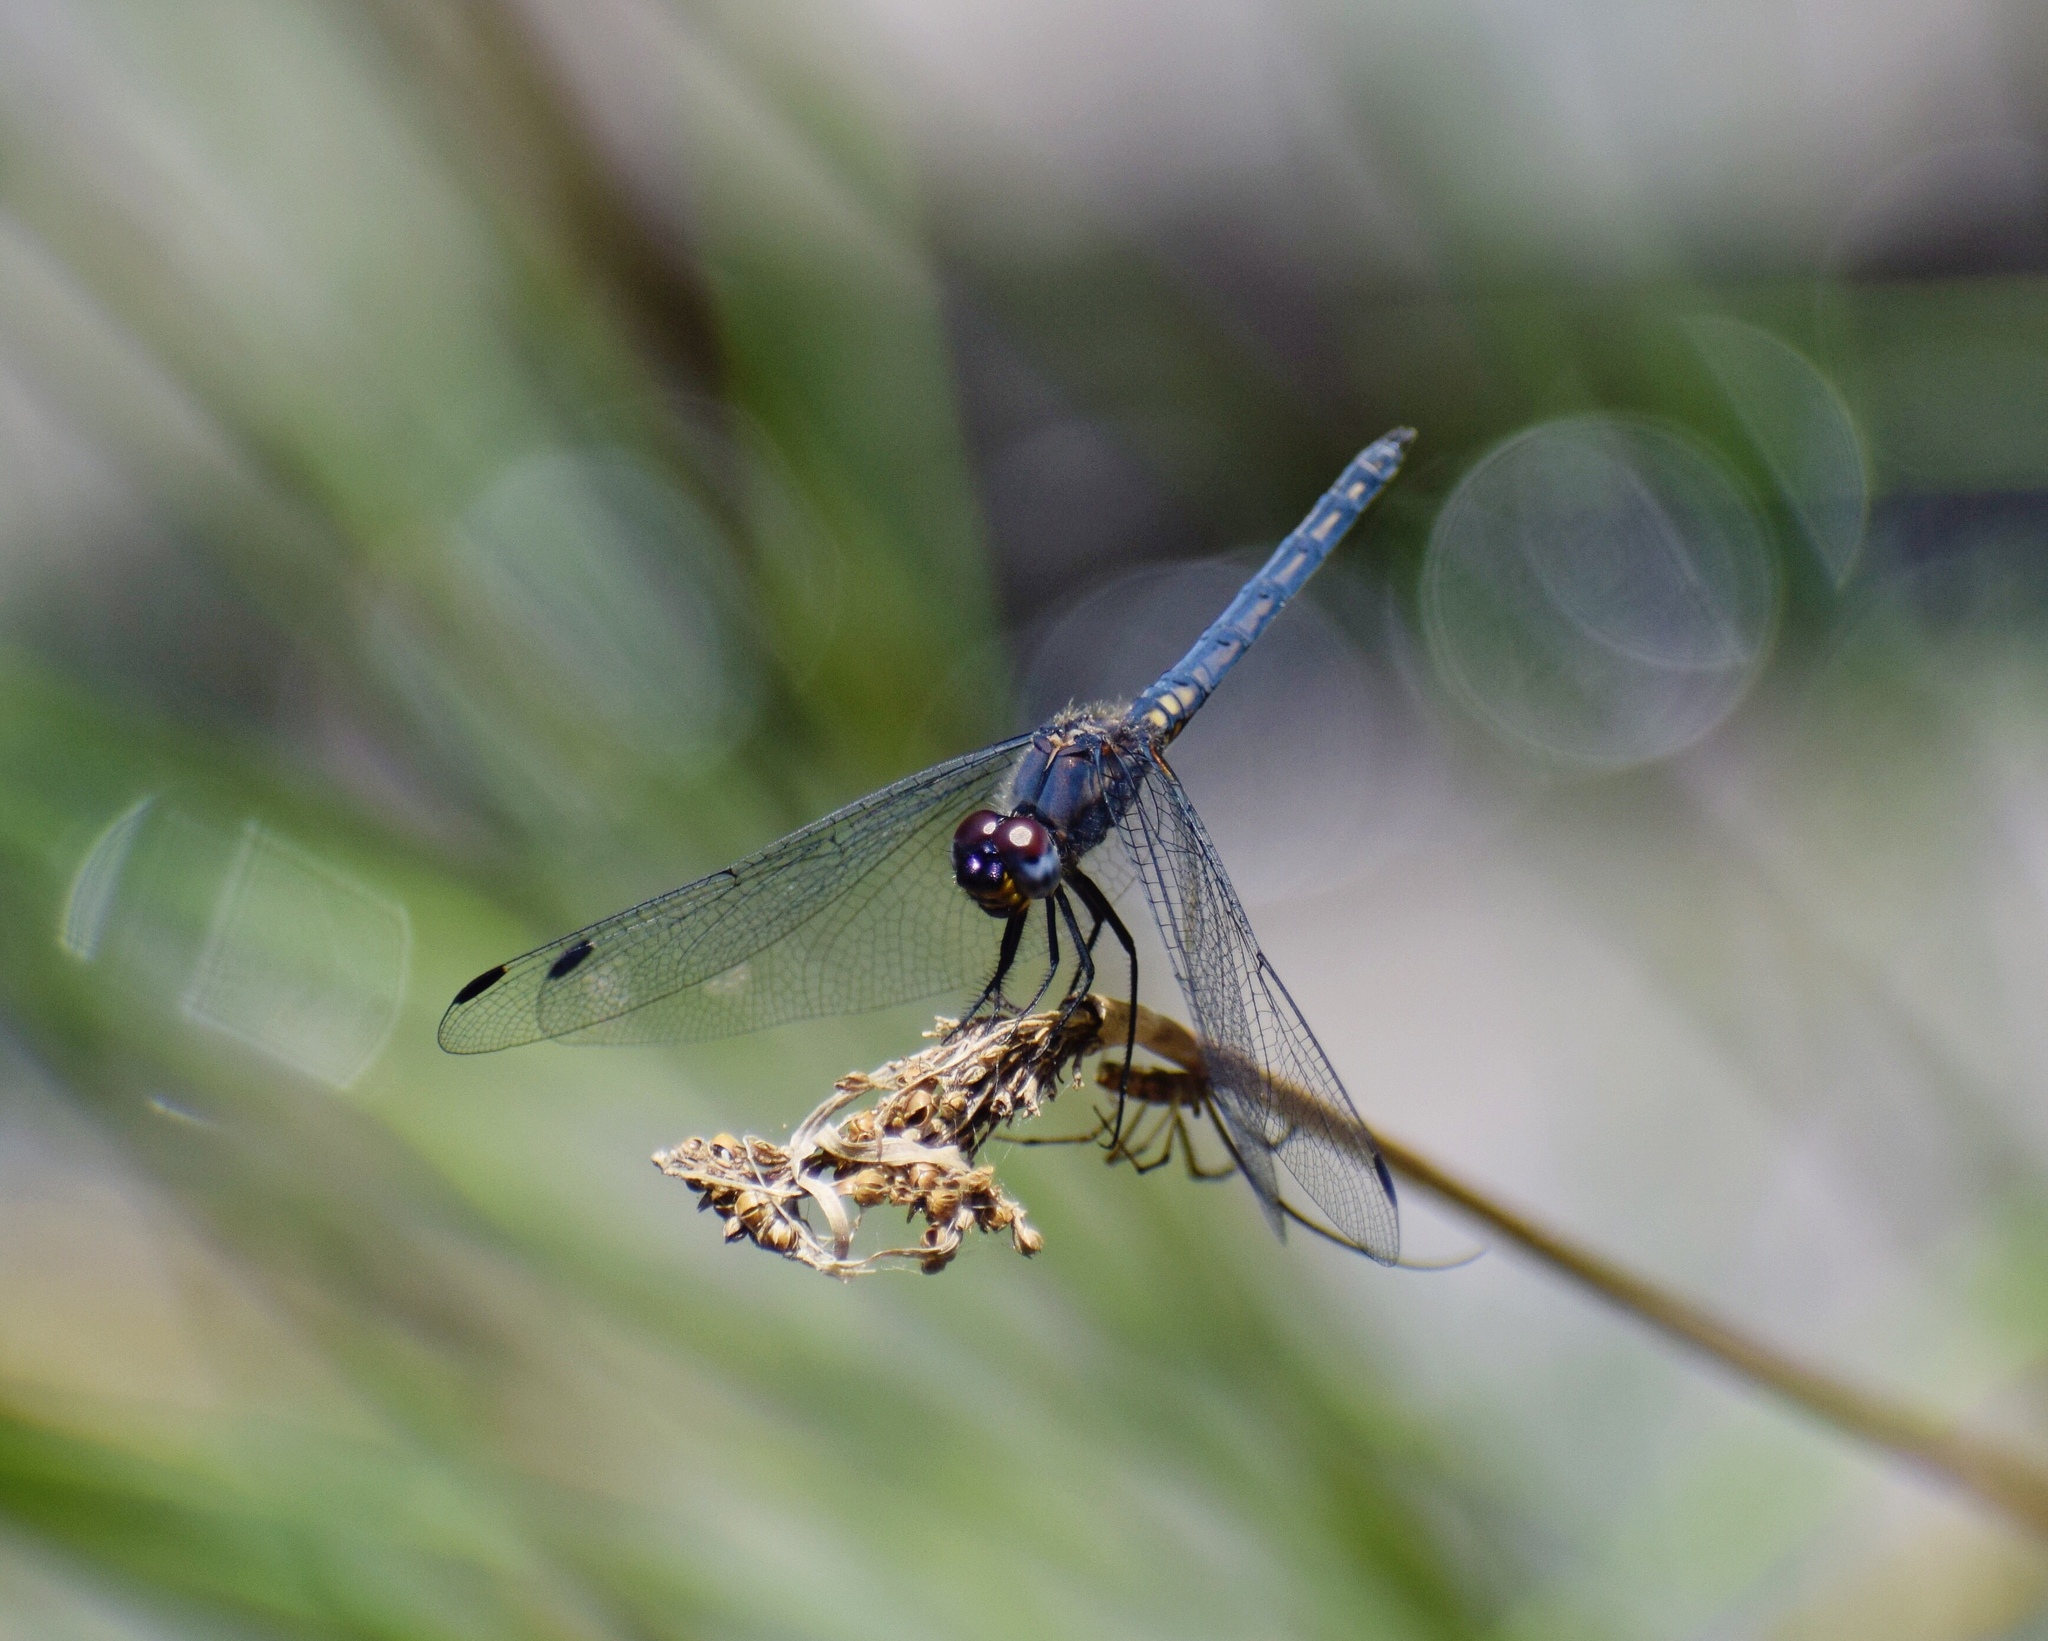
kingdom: Animalia
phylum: Arthropoda
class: Insecta
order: Odonata
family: Libellulidae
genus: Trithemis
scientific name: Trithemis furva
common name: Dark dropwing
